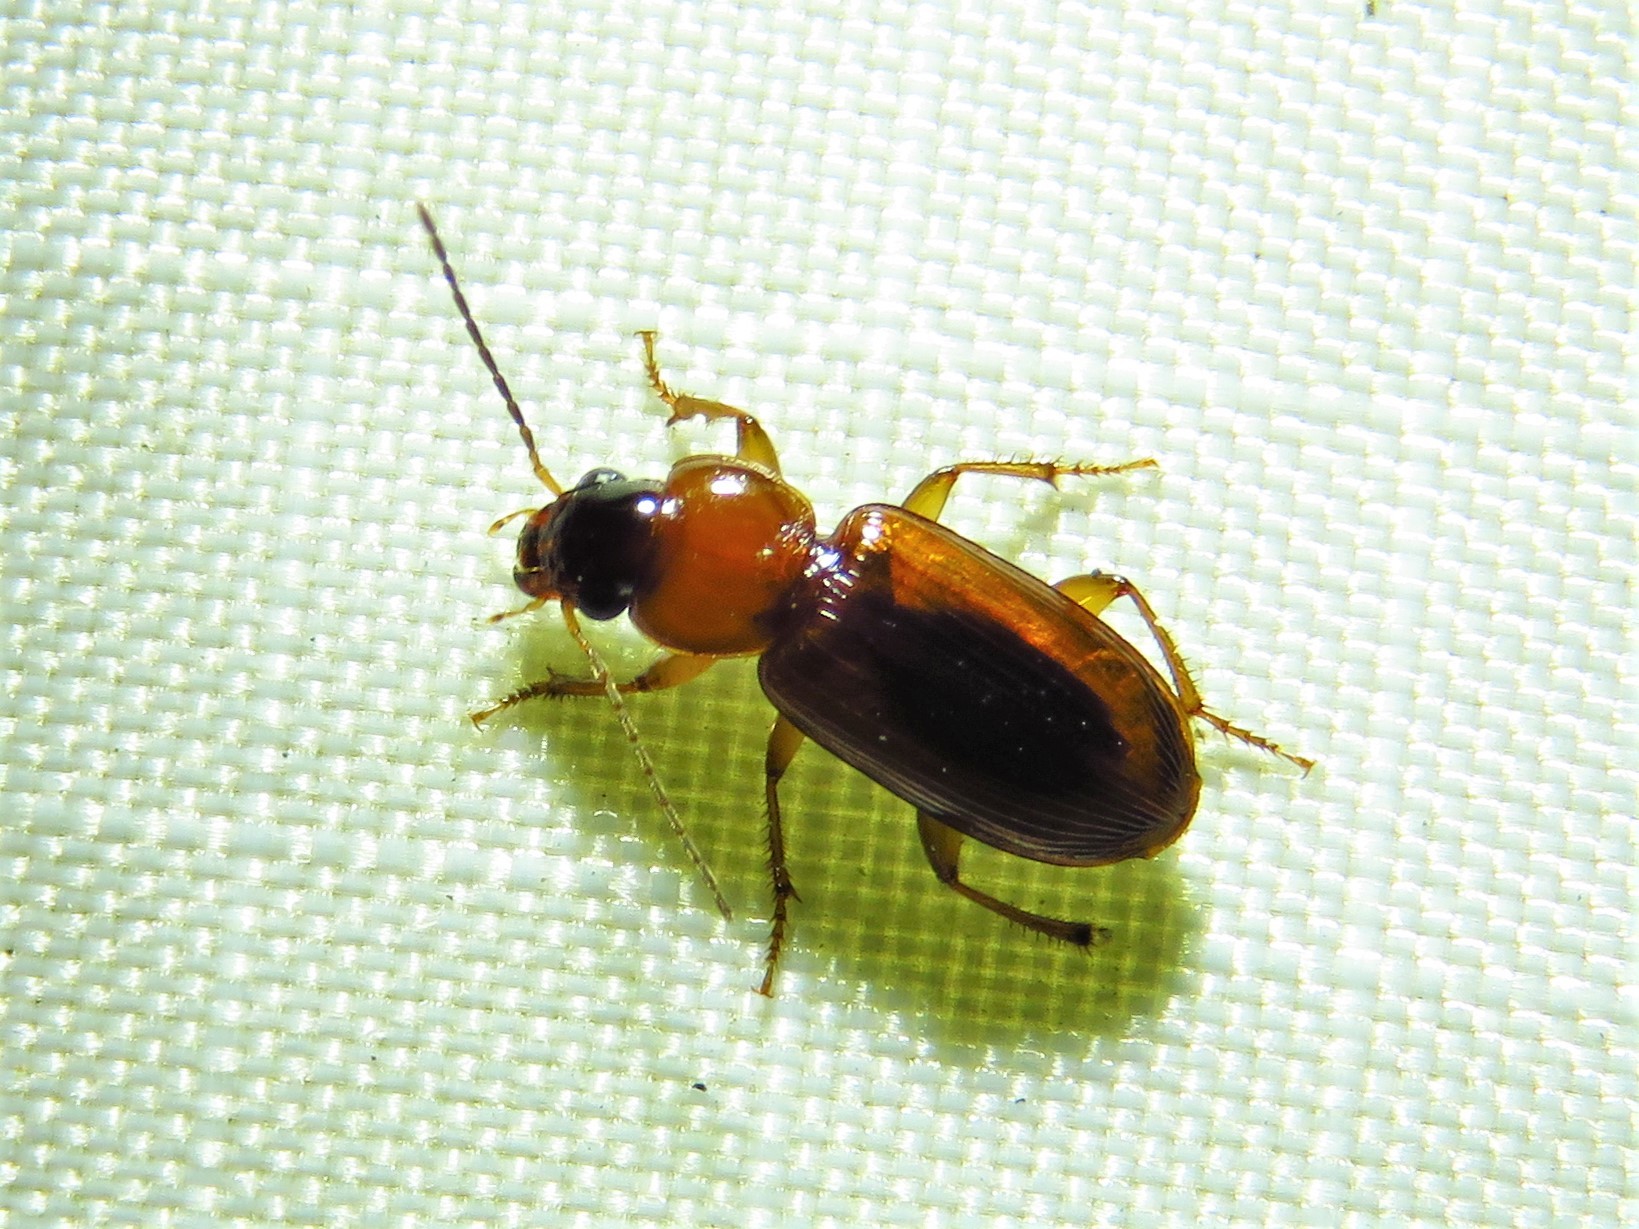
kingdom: Animalia
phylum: Arthropoda
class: Insecta
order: Coleoptera
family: Carabidae
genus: Stenolophus
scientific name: Stenolophus dissimilis
